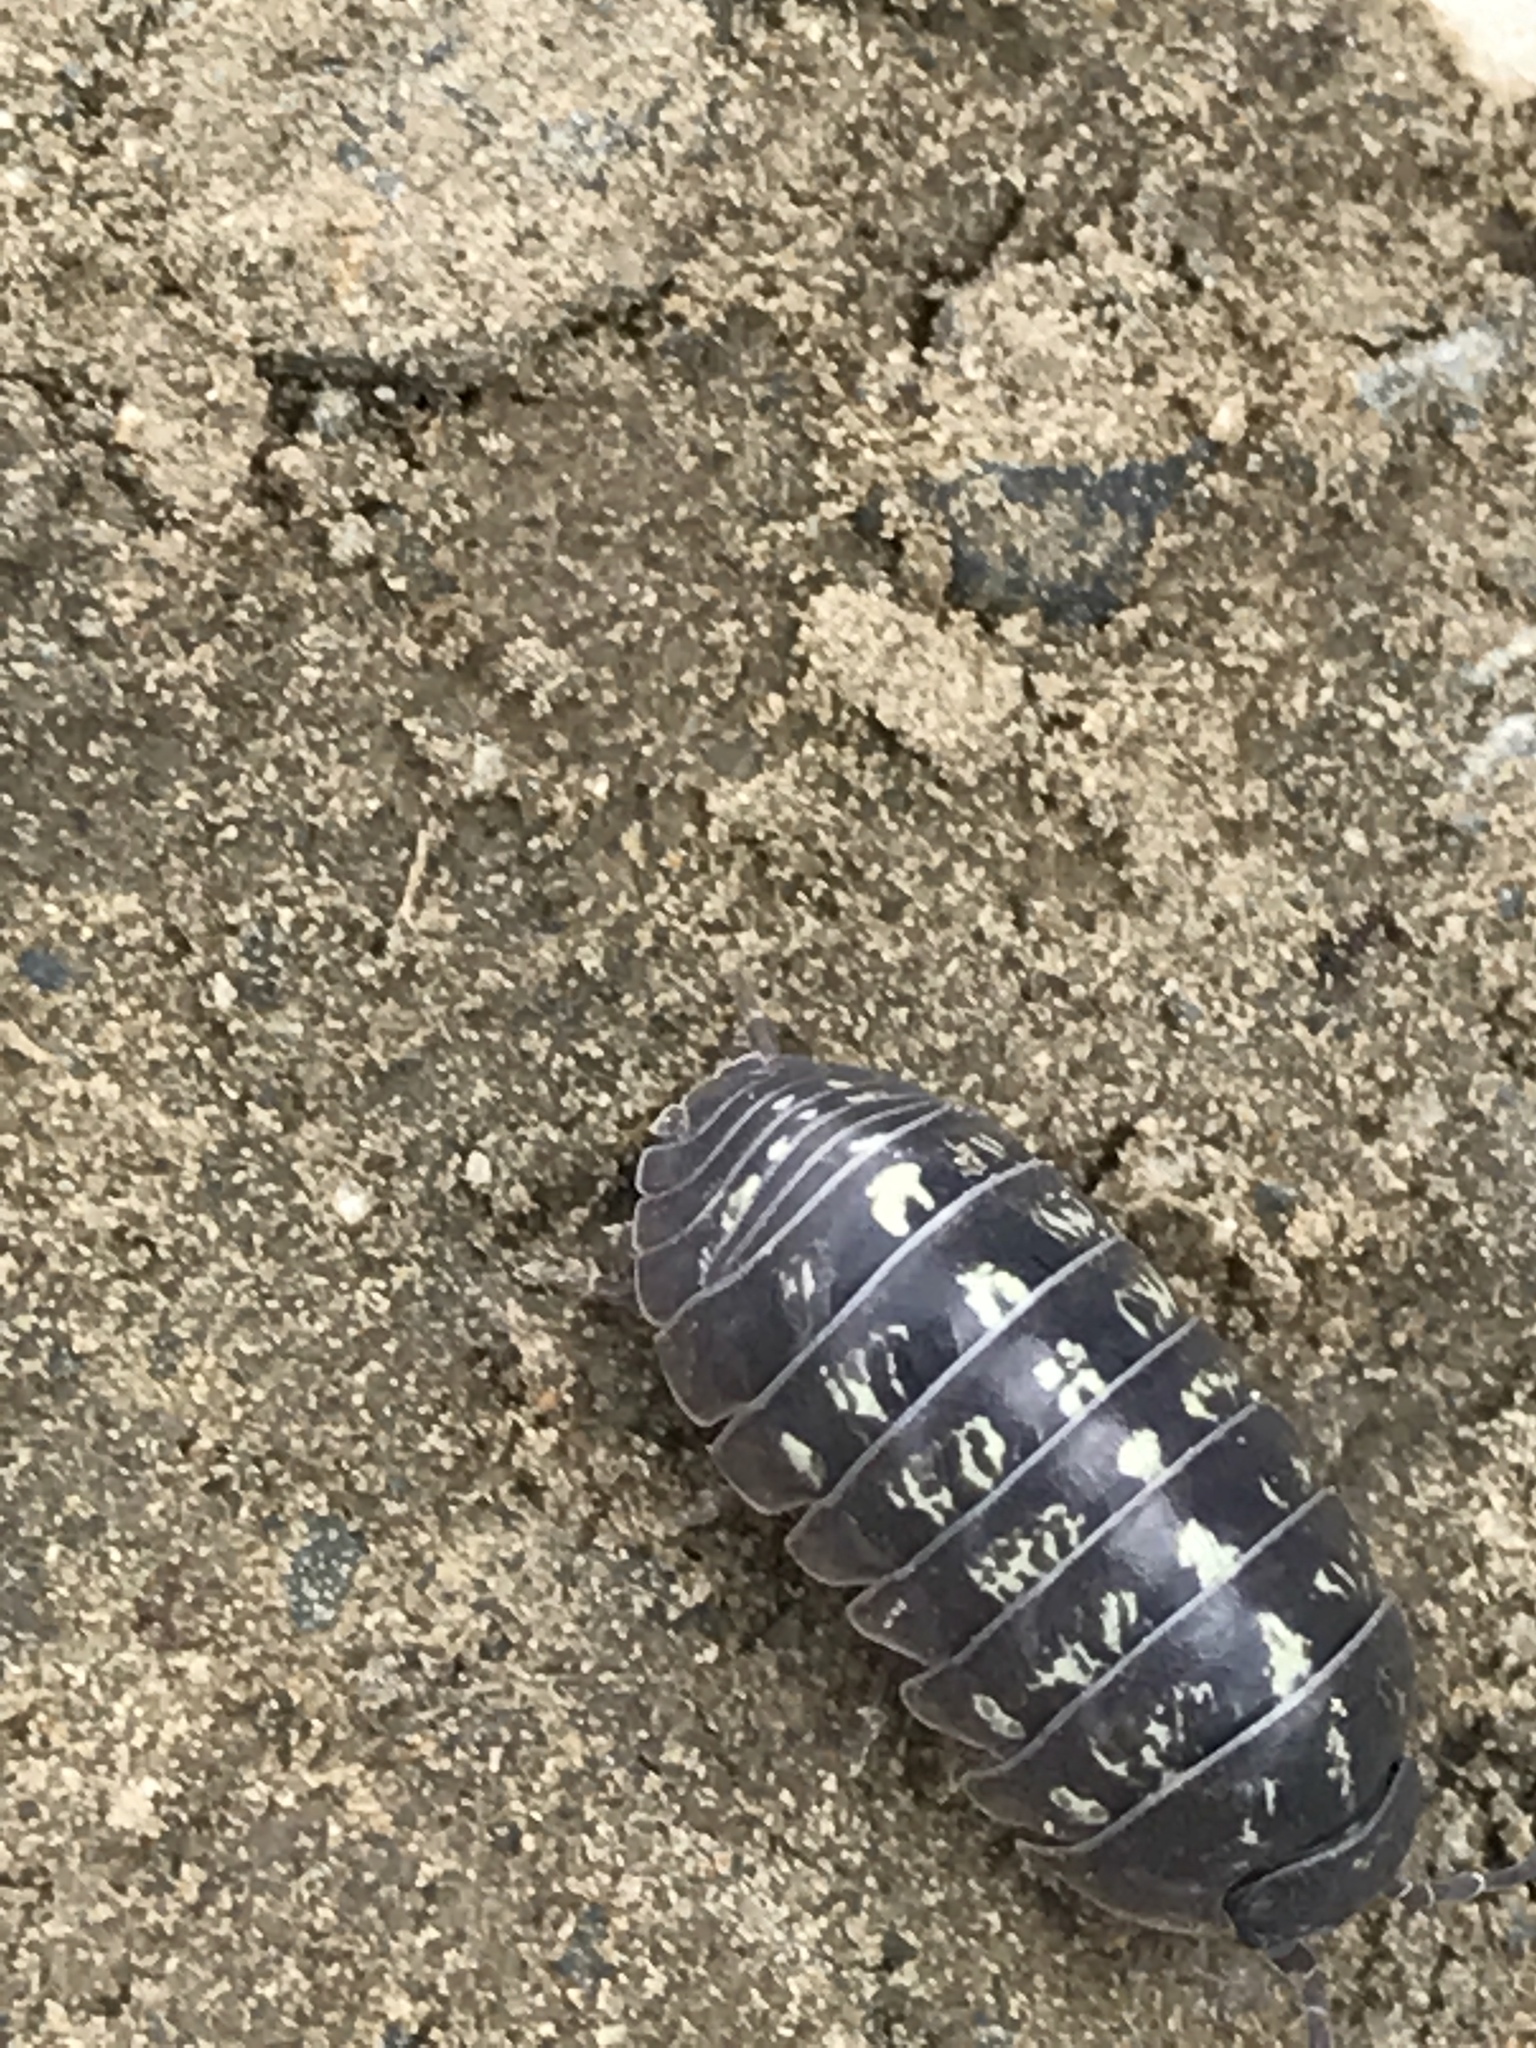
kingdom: Animalia
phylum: Arthropoda
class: Malacostraca
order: Isopoda
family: Armadillidiidae
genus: Armadillidium
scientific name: Armadillidium vulgare
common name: Common pill woodlouse
